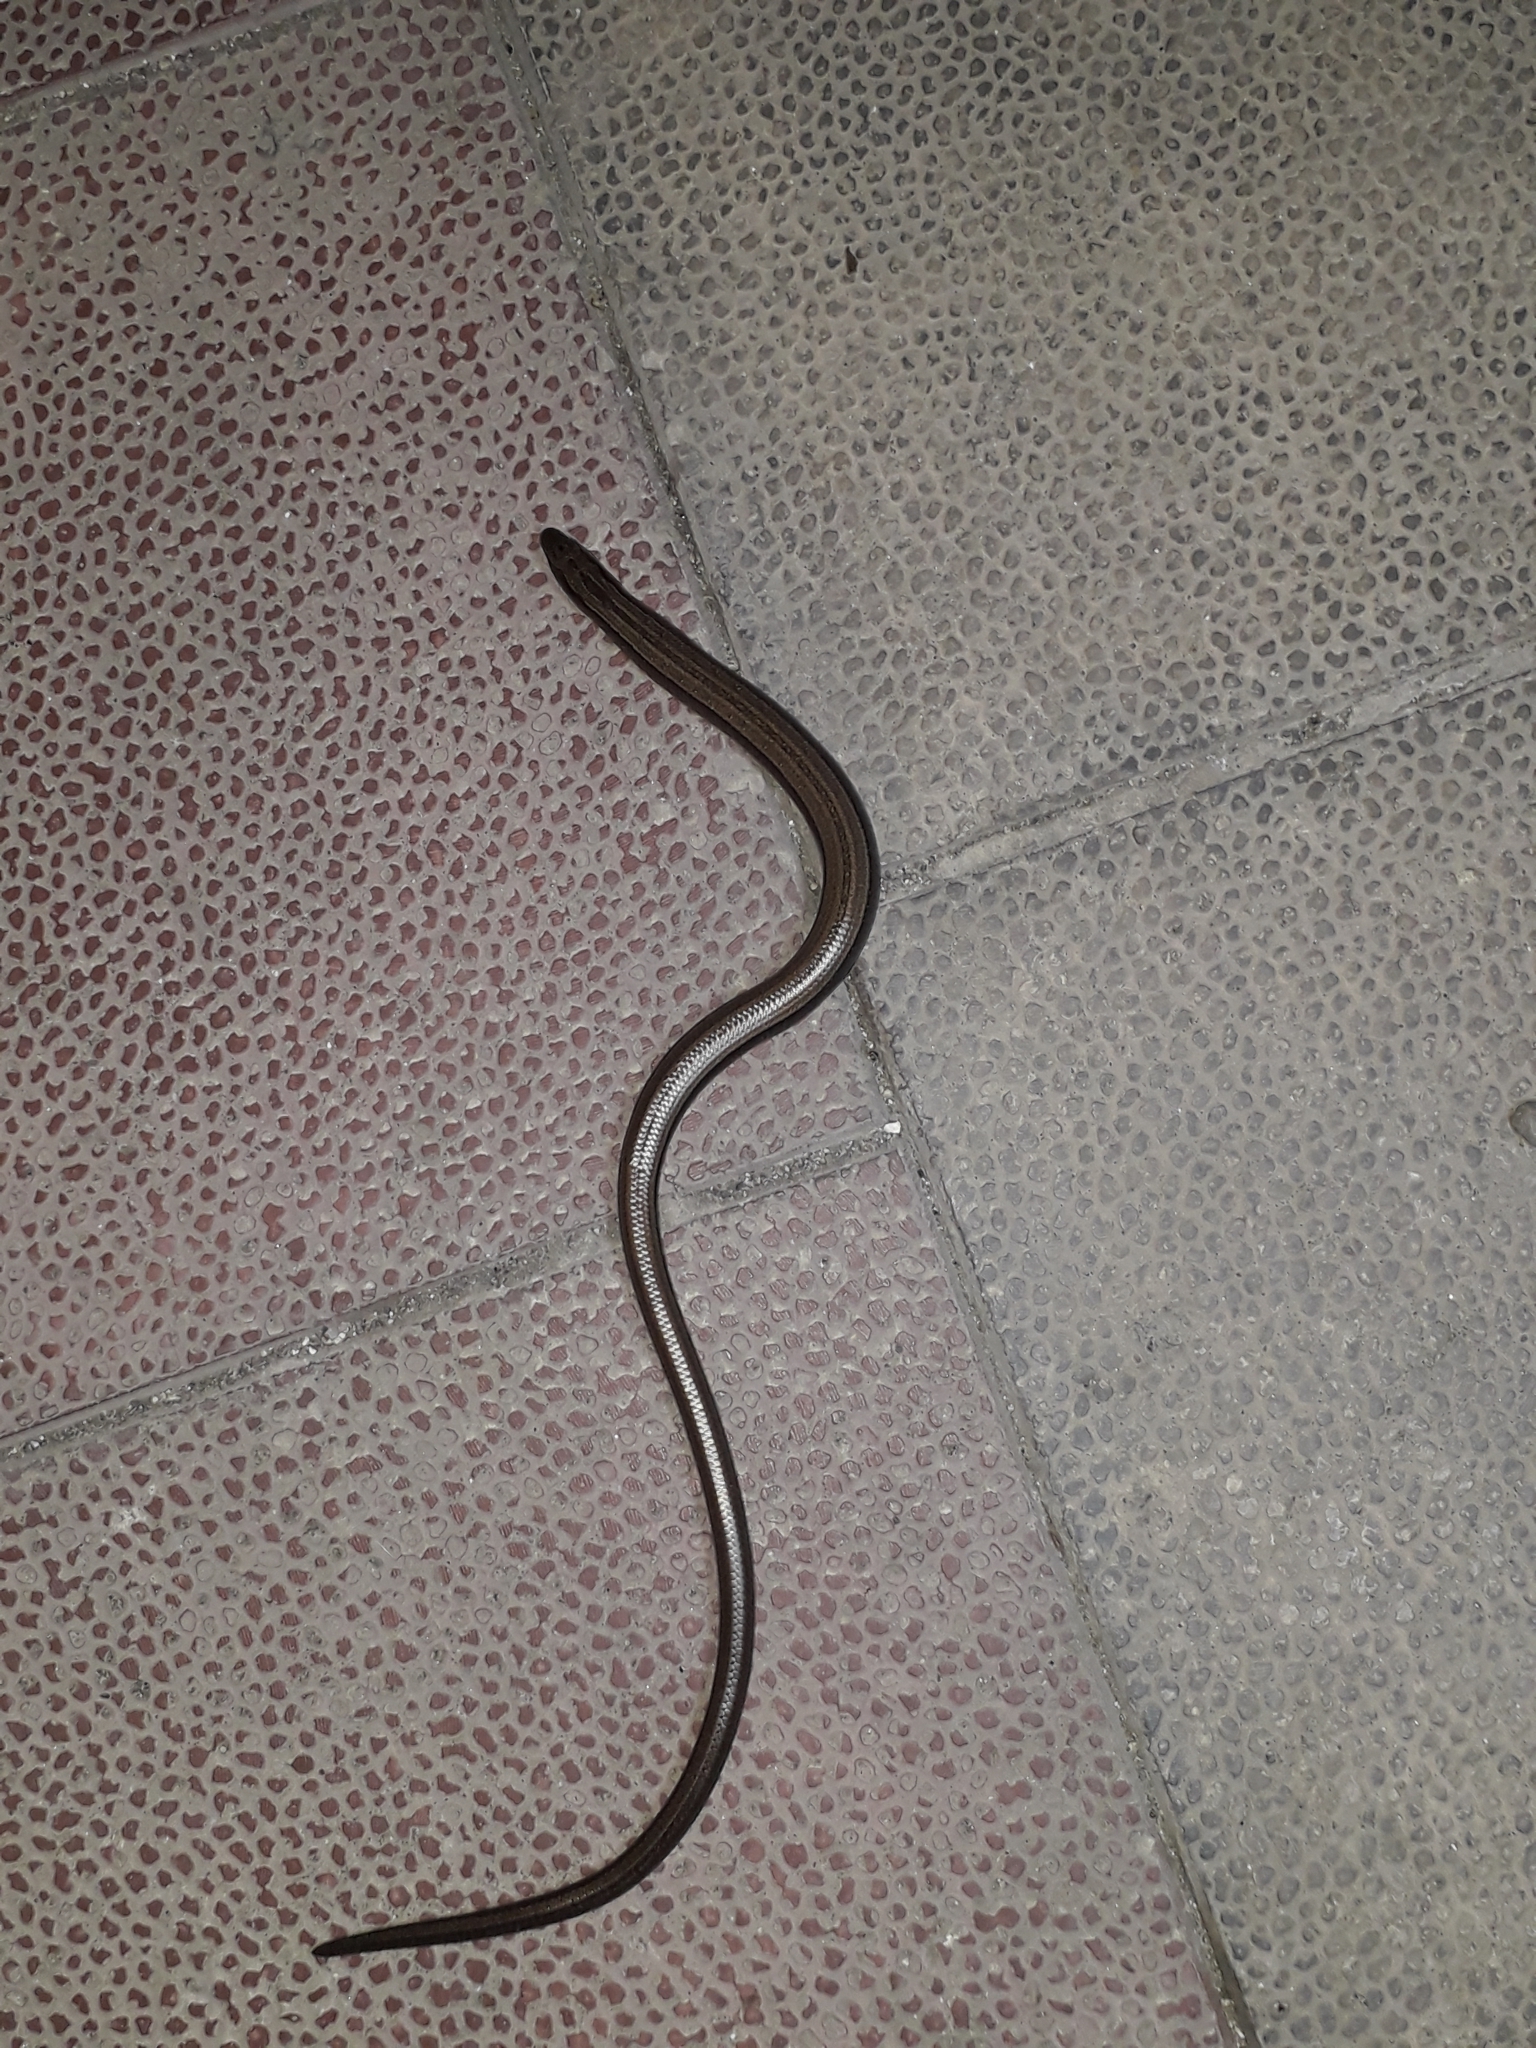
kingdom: Animalia
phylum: Chordata
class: Squamata
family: Anguidae
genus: Anguis
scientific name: Anguis colchica
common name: Slow worm
